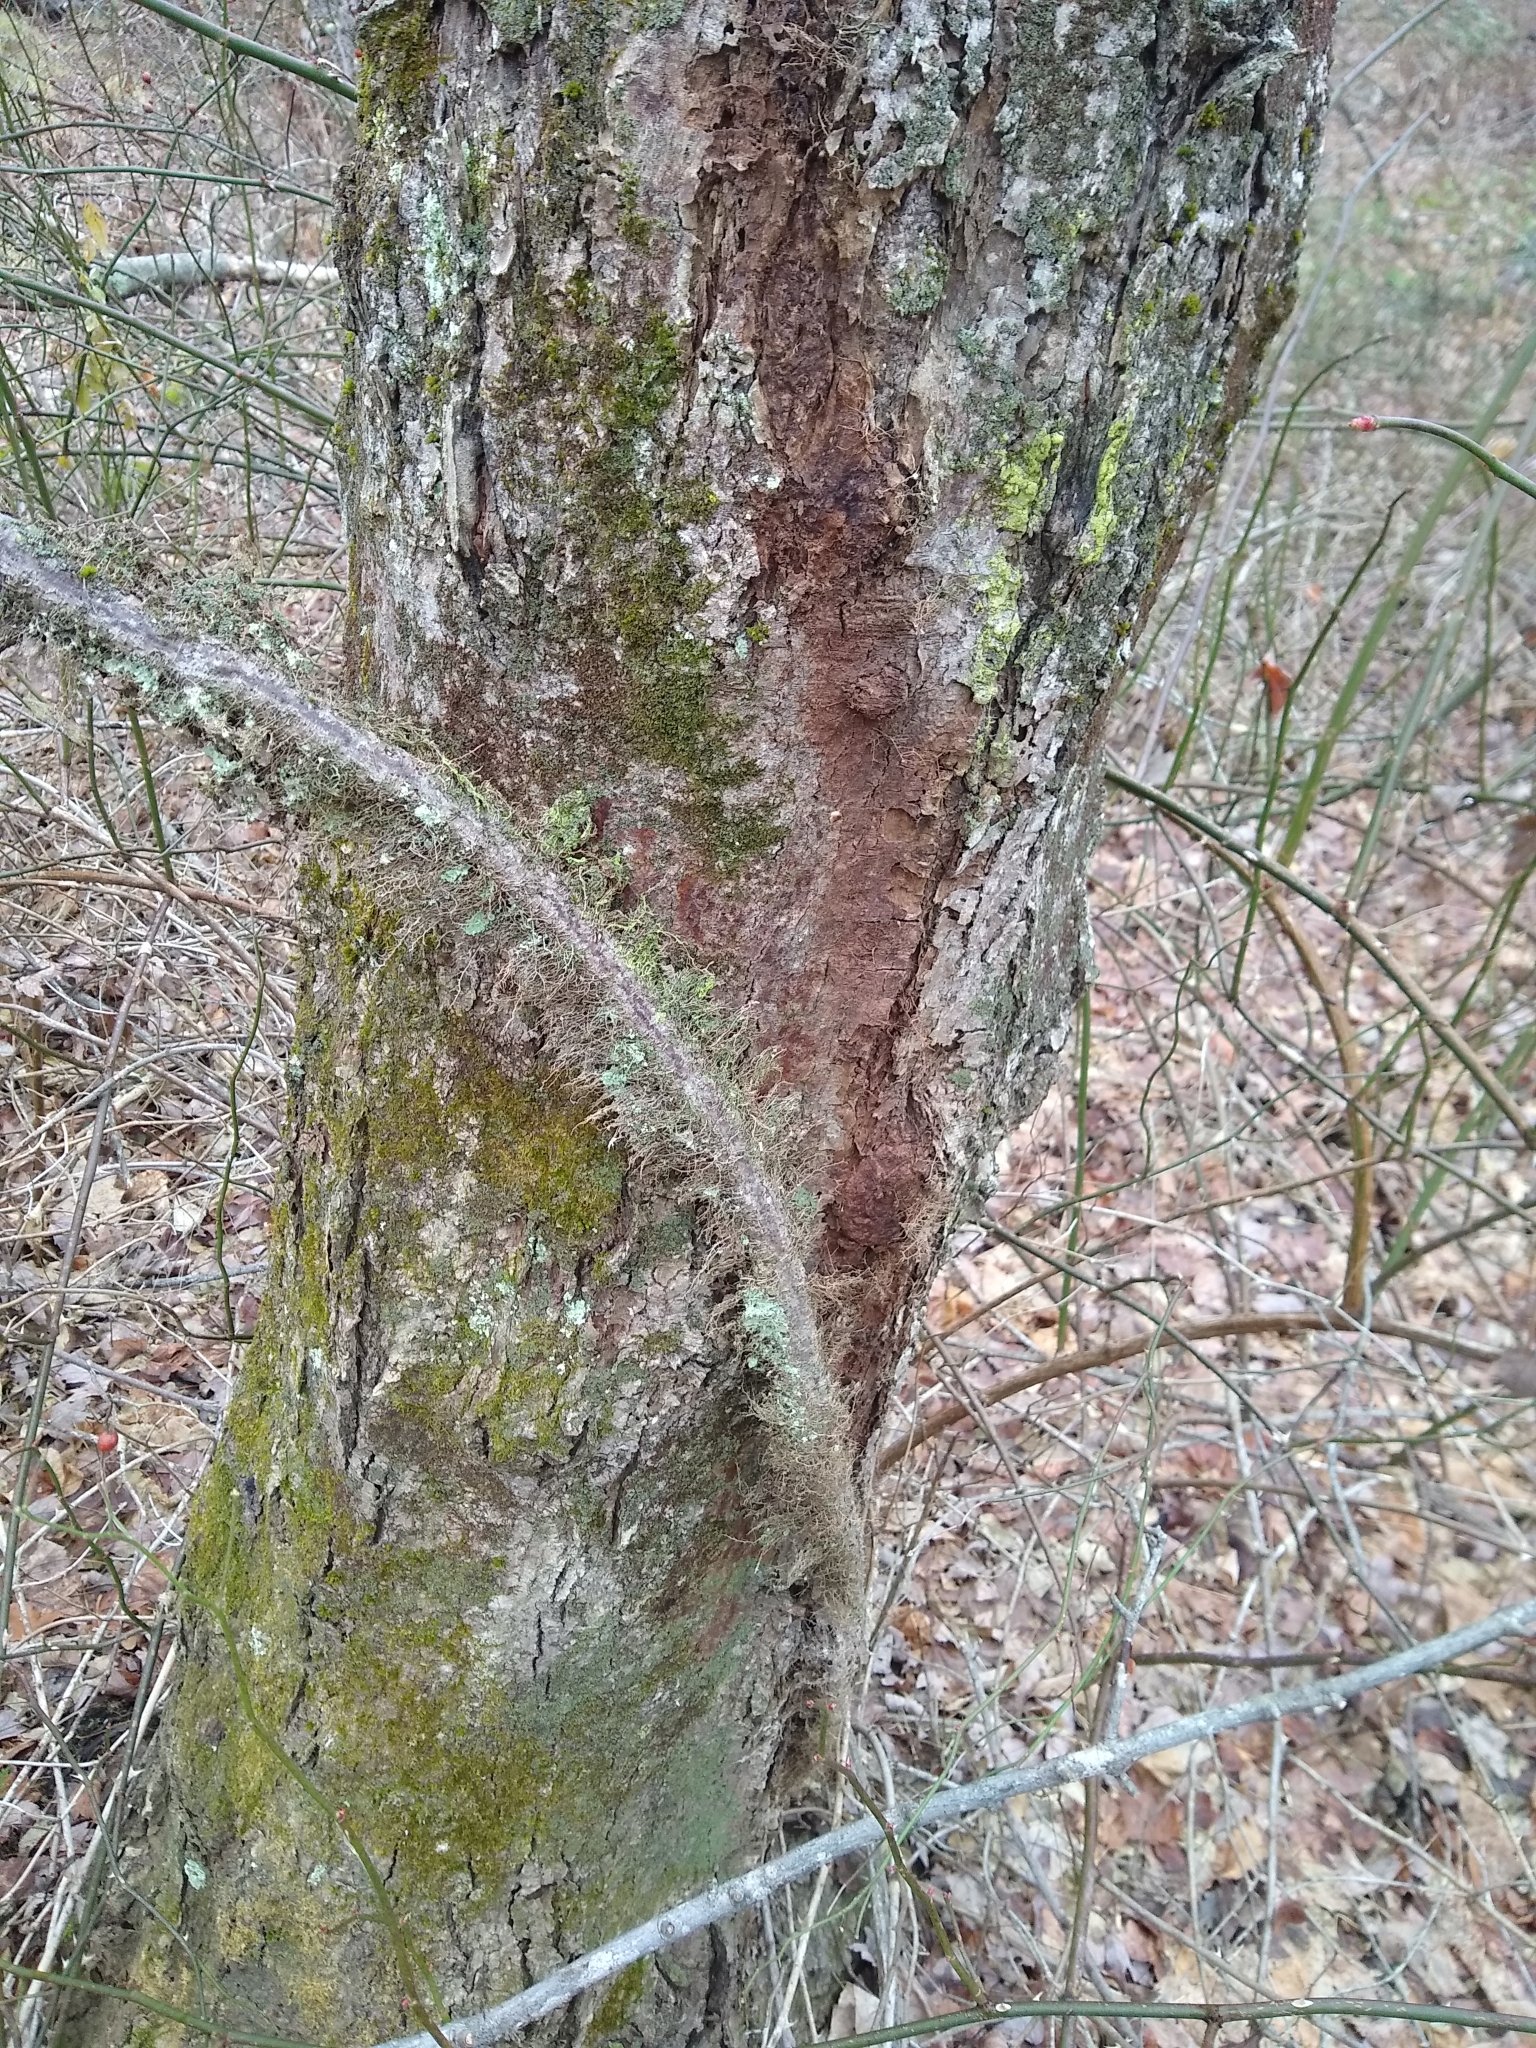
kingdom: Plantae
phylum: Tracheophyta
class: Magnoliopsida
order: Sapindales
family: Anacardiaceae
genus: Toxicodendron
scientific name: Toxicodendron radicans
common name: Poison ivy
